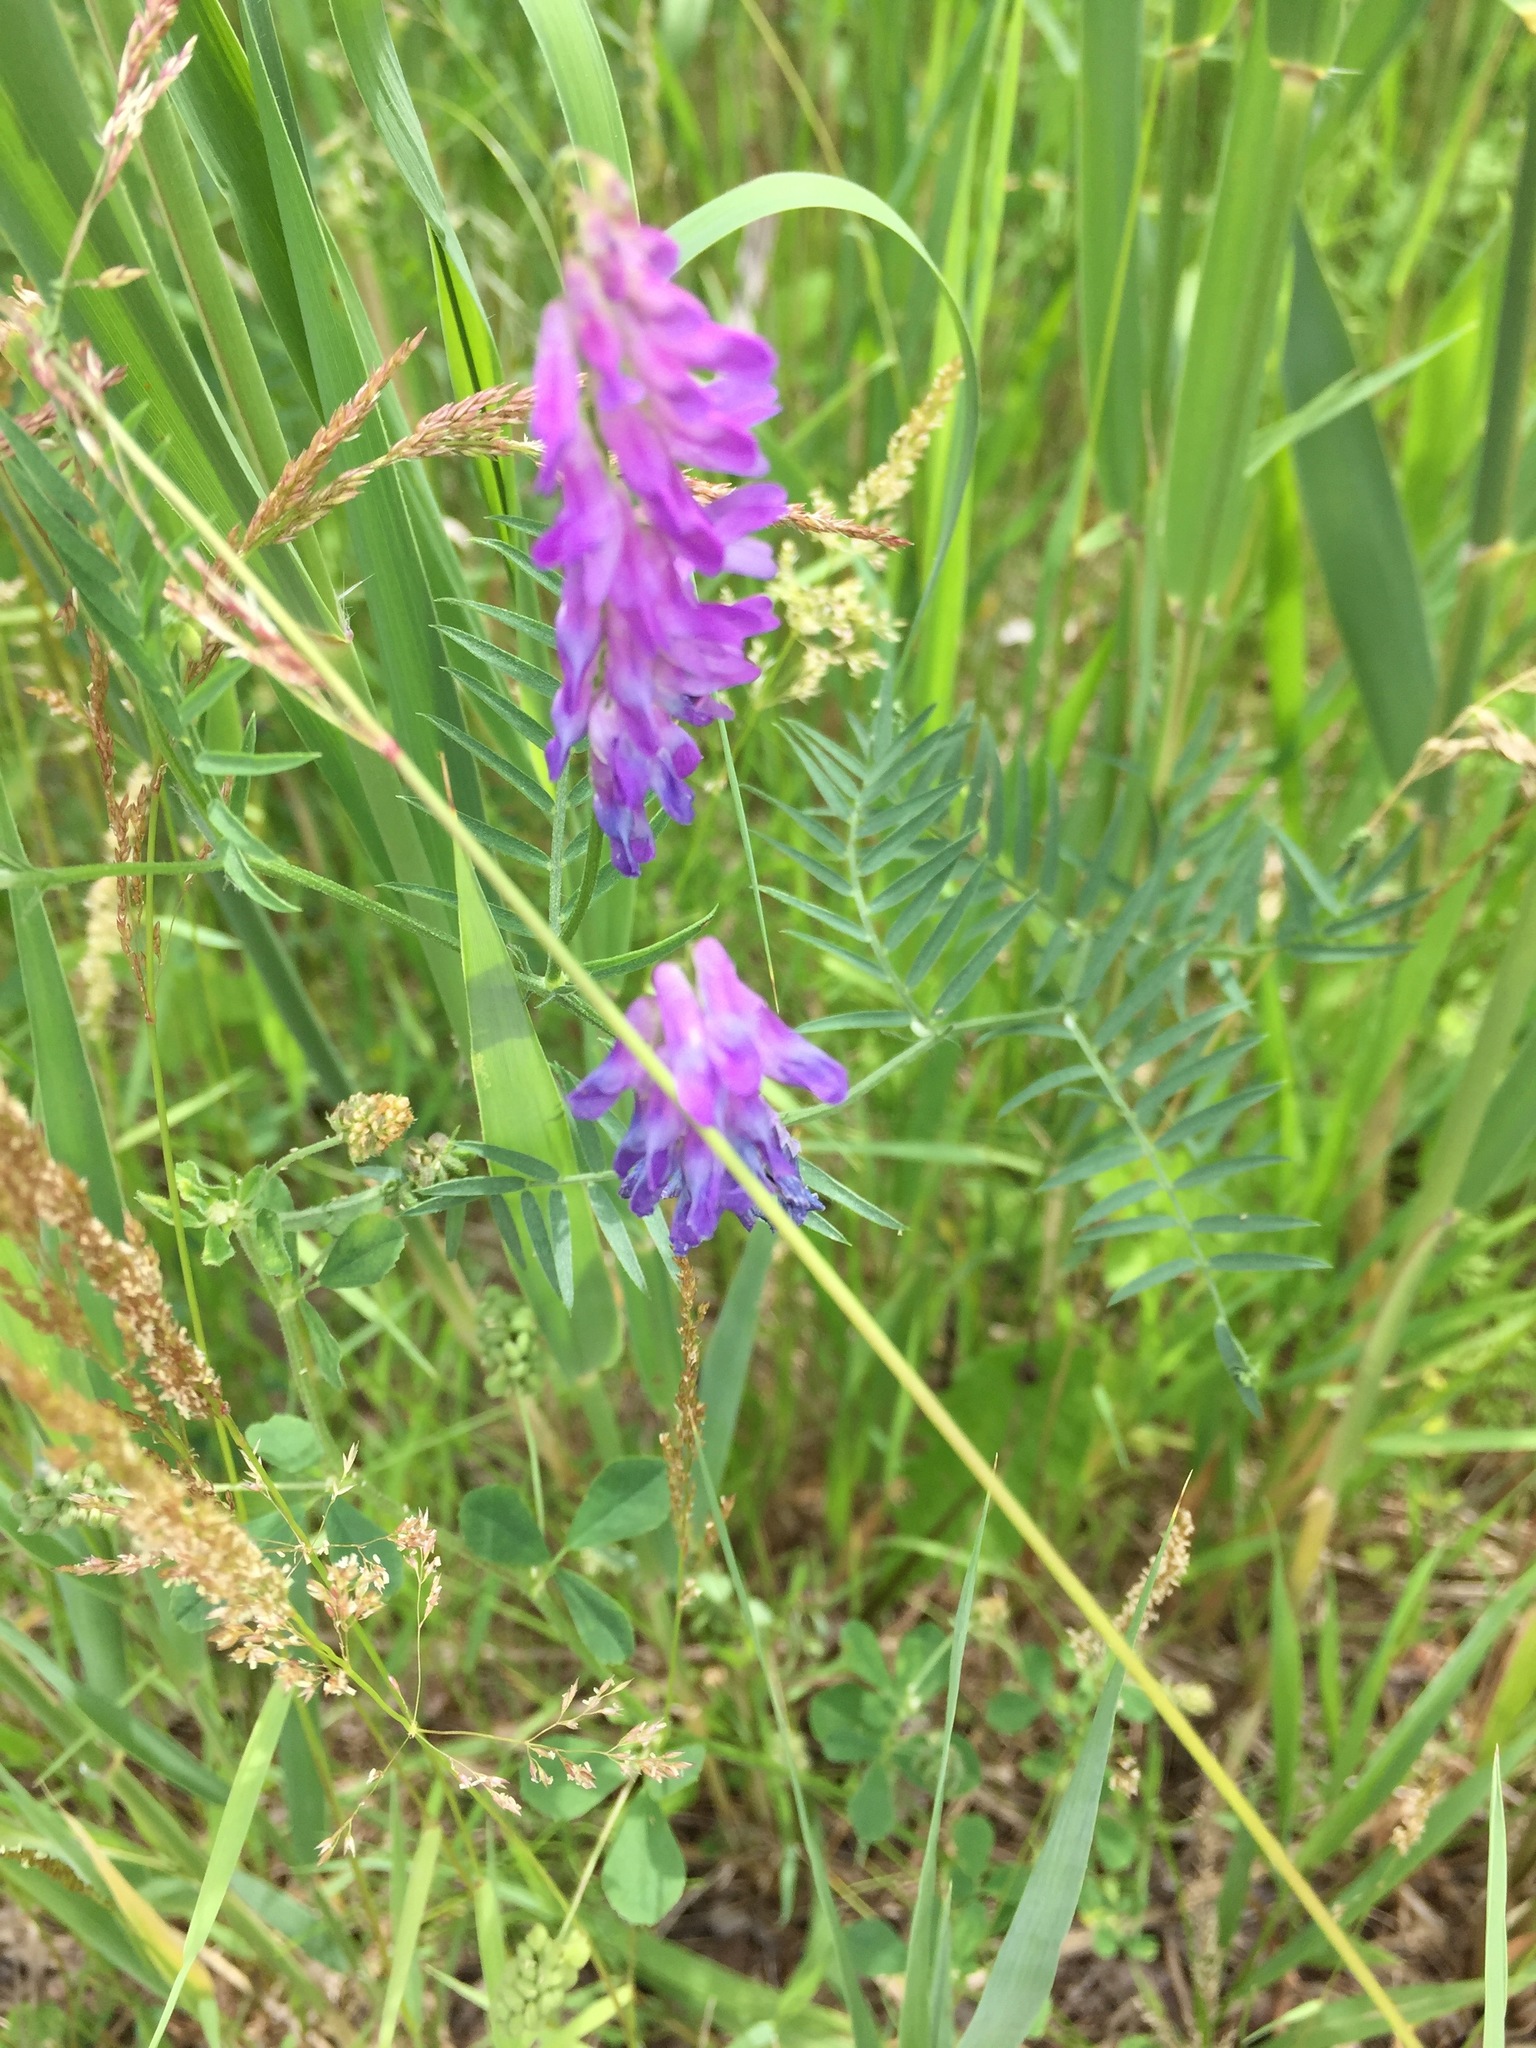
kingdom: Plantae
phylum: Tracheophyta
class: Magnoliopsida
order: Fabales
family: Fabaceae
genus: Vicia
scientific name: Vicia cracca
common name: Bird vetch
